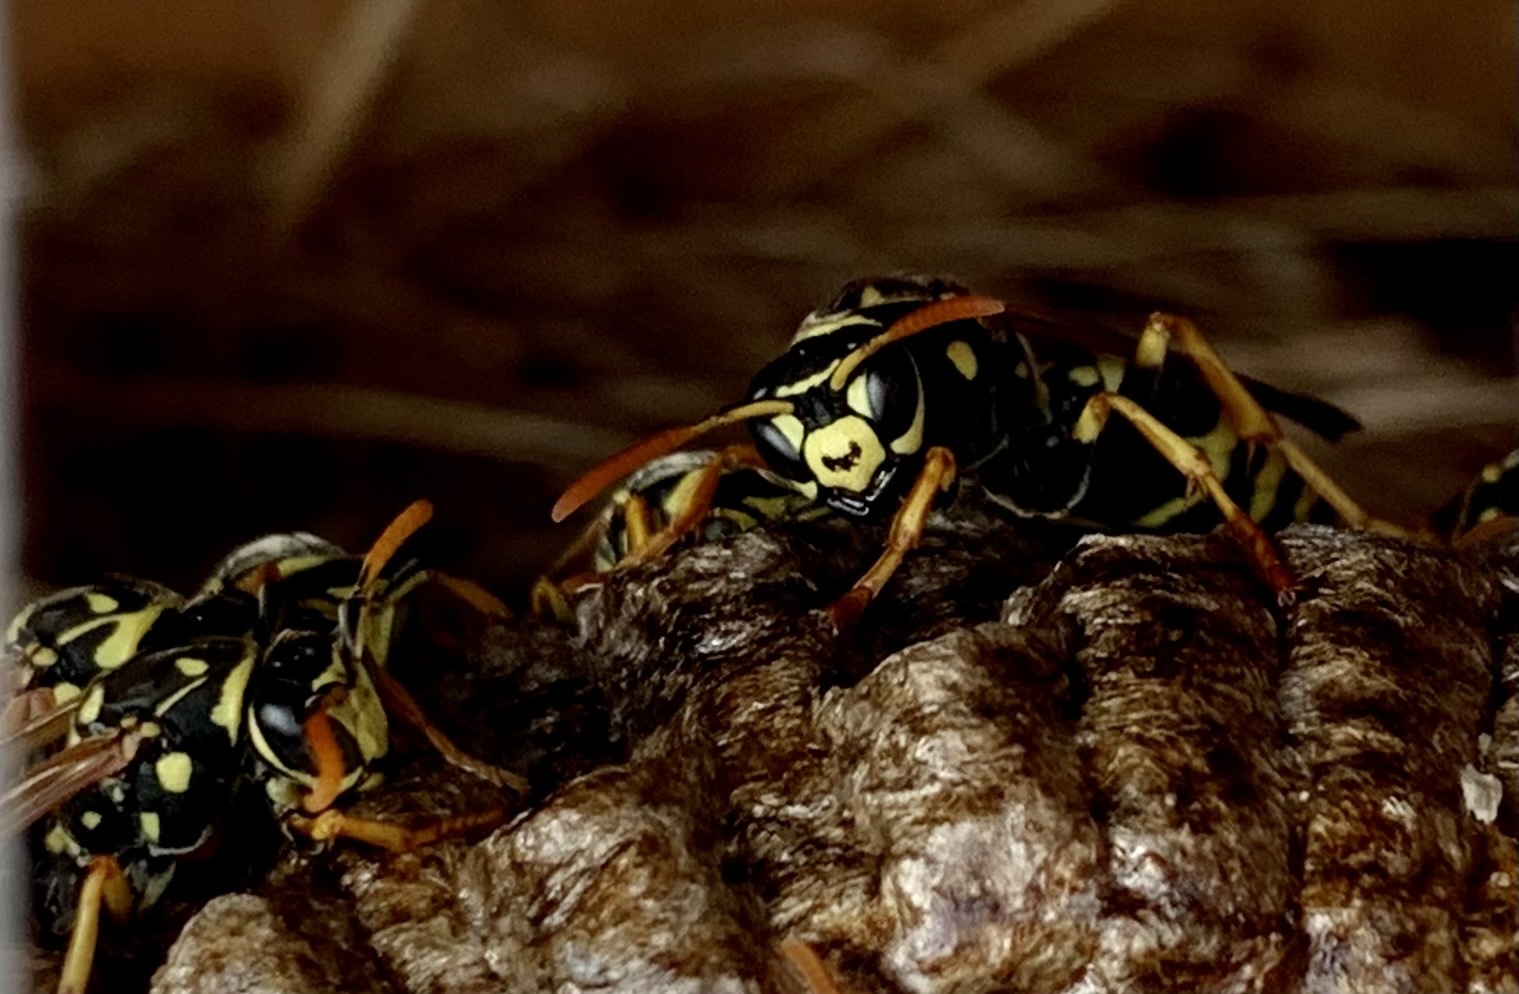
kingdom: Animalia
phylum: Arthropoda
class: Insecta
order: Hymenoptera
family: Eumenidae
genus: Polistes
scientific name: Polistes dominula
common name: Paper wasp
